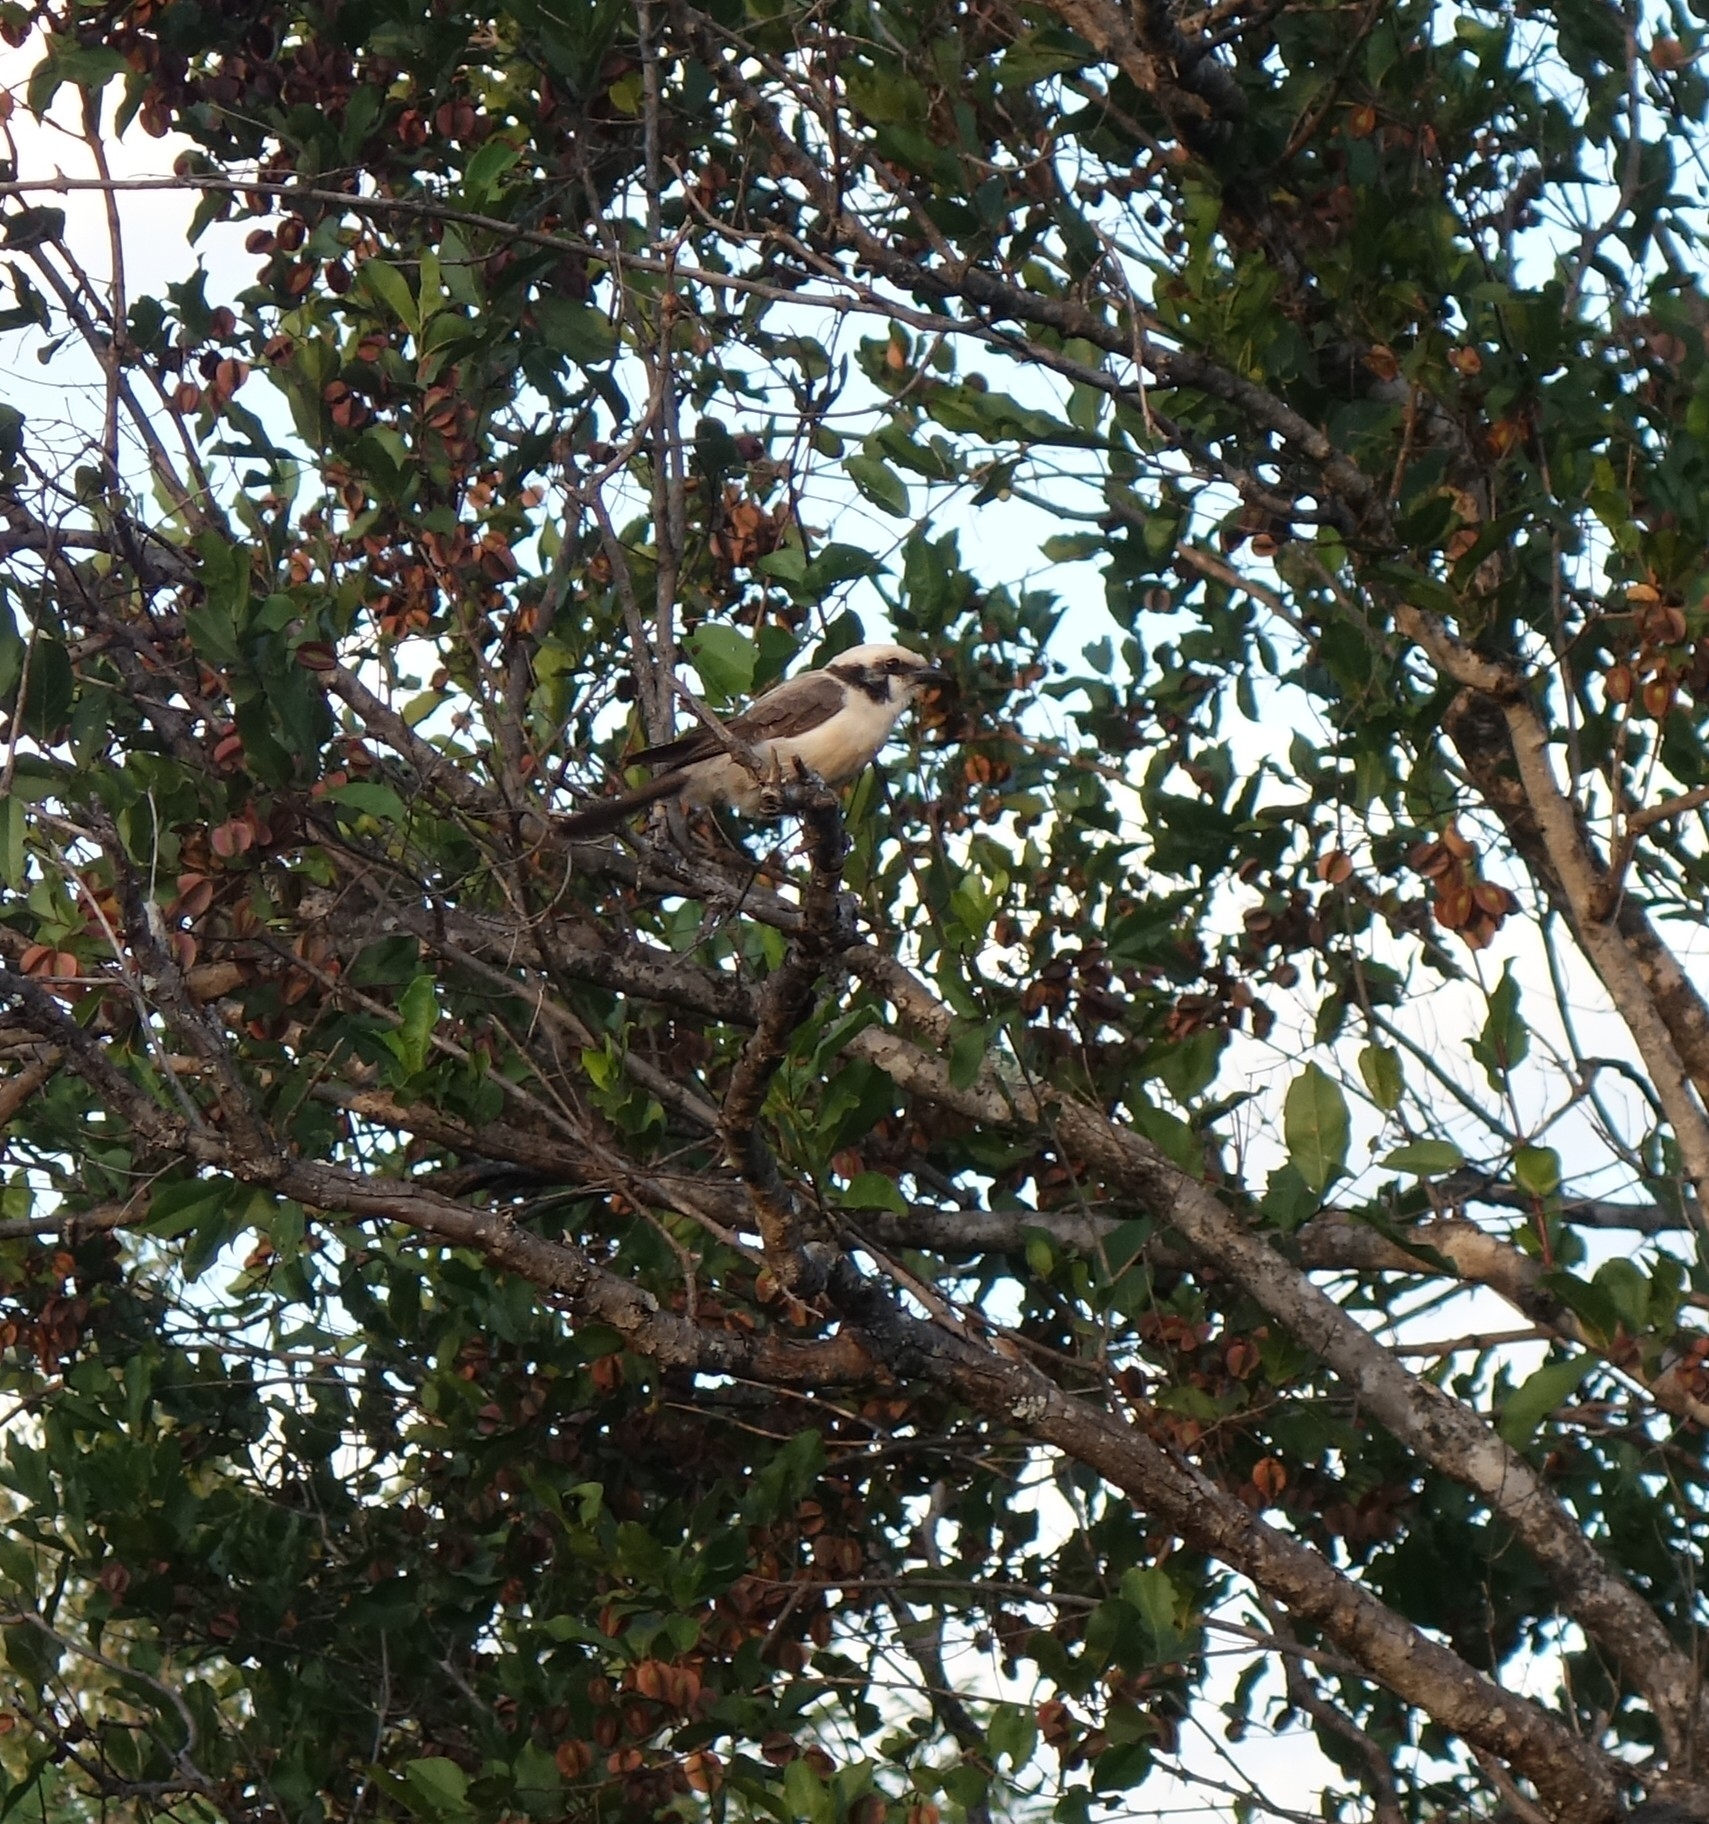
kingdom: Animalia
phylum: Chordata
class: Aves
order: Passeriformes
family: Laniidae
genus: Eurocephalus
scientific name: Eurocephalus anguitimens
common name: Southern white-crowned shrike
